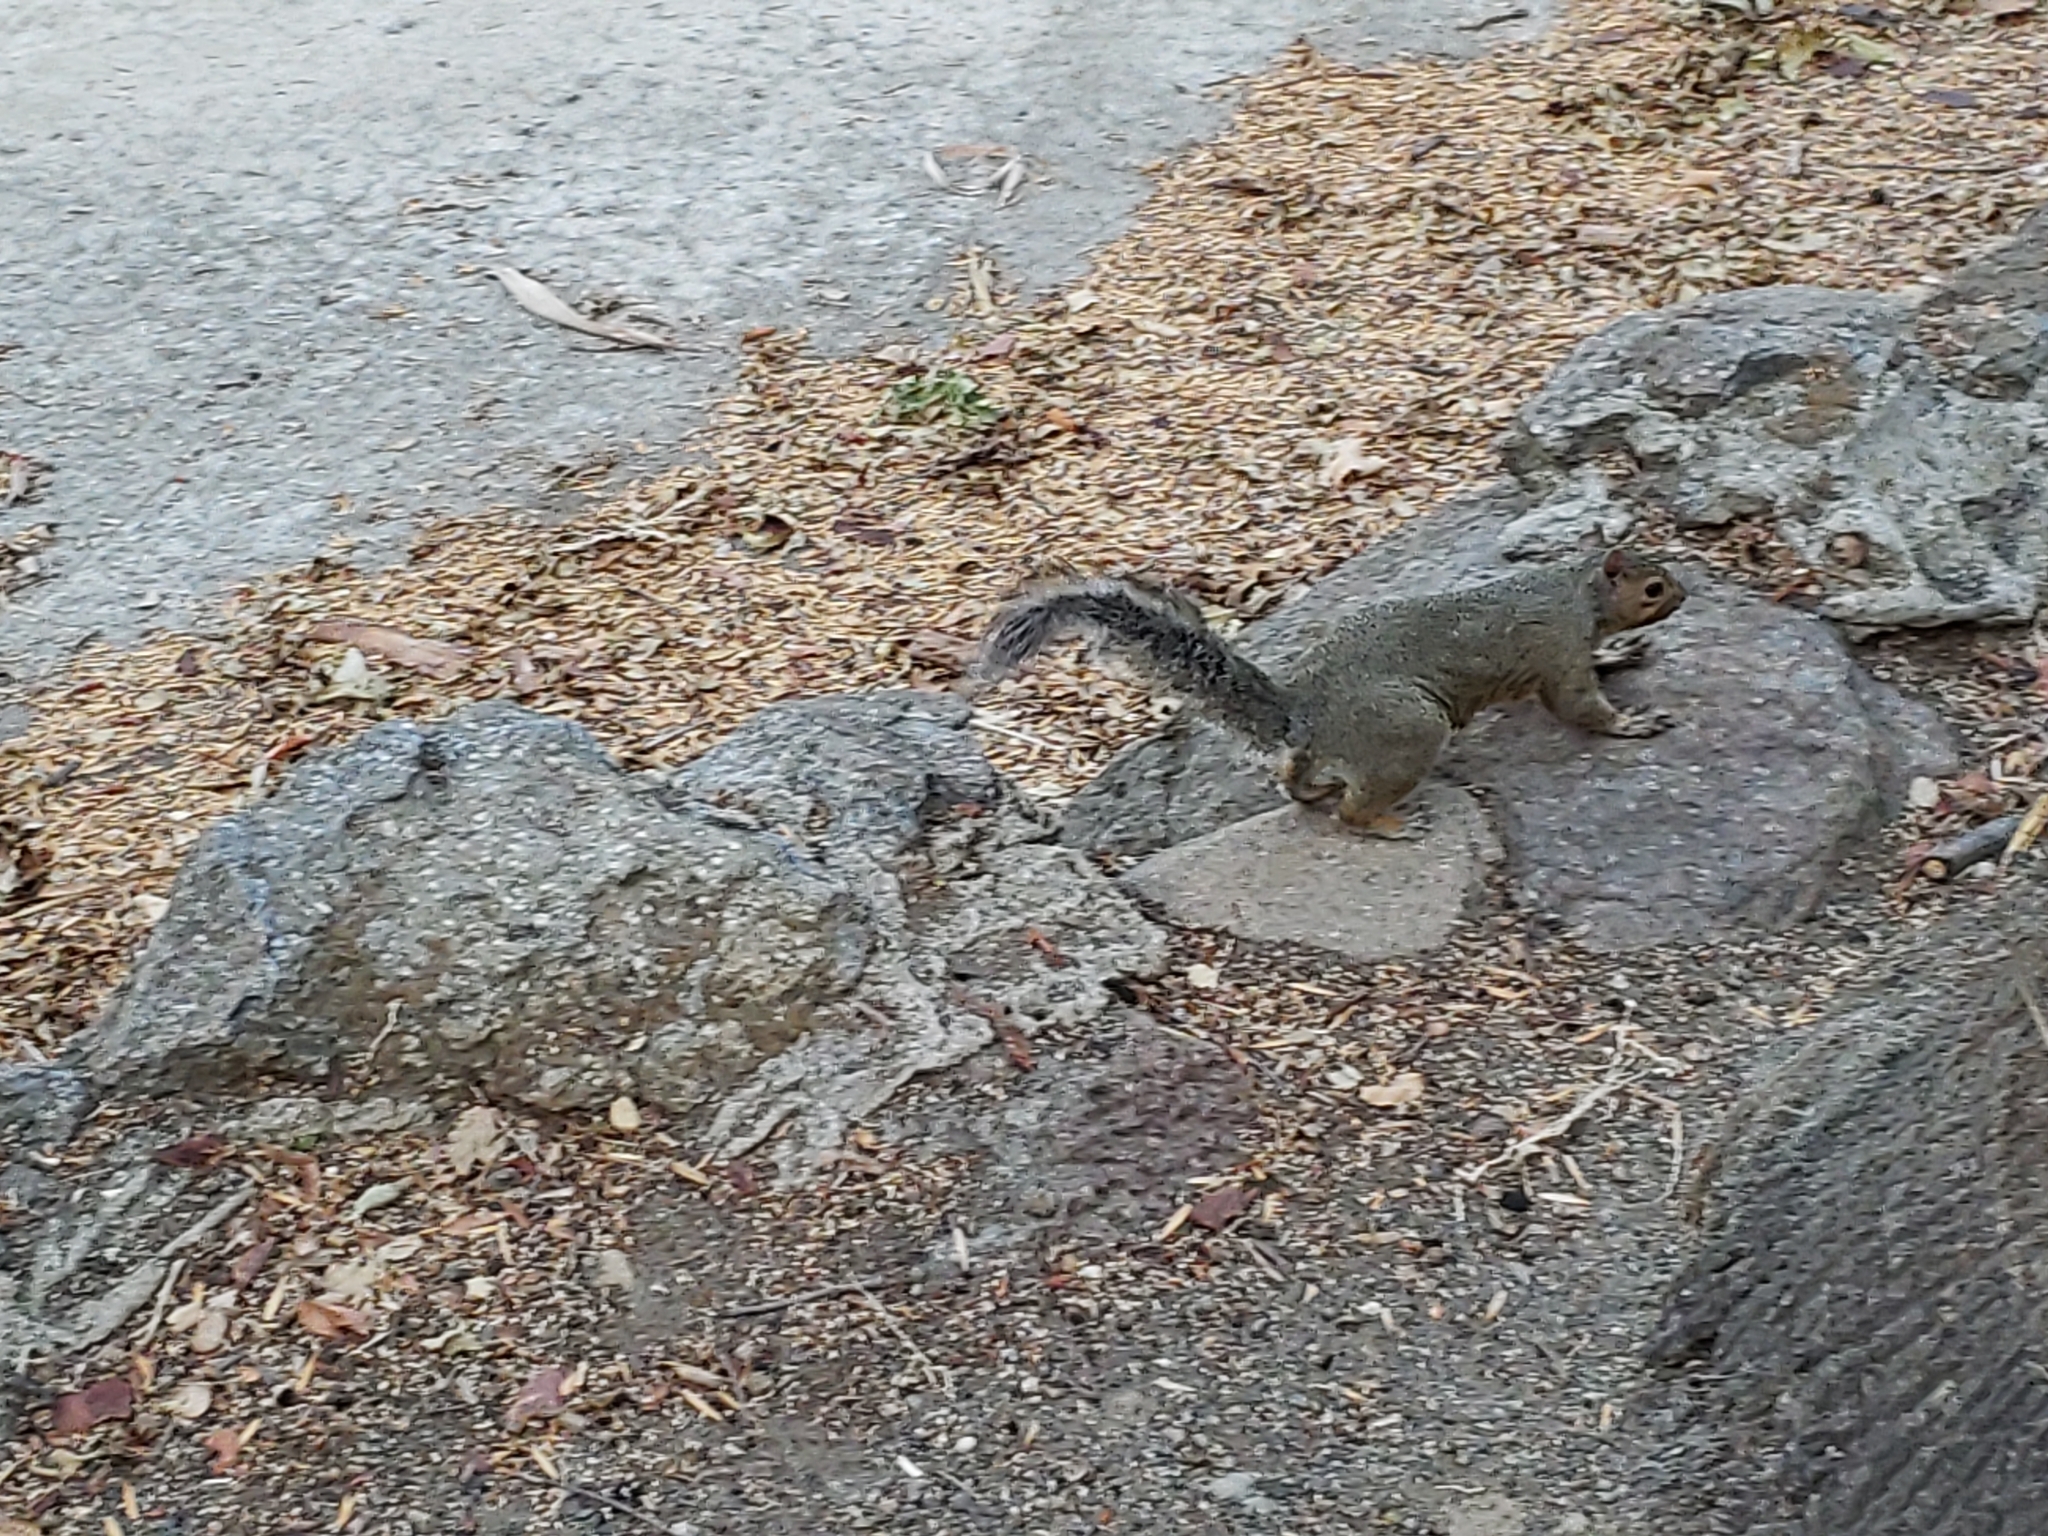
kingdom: Animalia
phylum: Chordata
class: Mammalia
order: Rodentia
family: Sciuridae
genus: Sciurus
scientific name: Sciurus carolinensis
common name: Eastern gray squirrel
